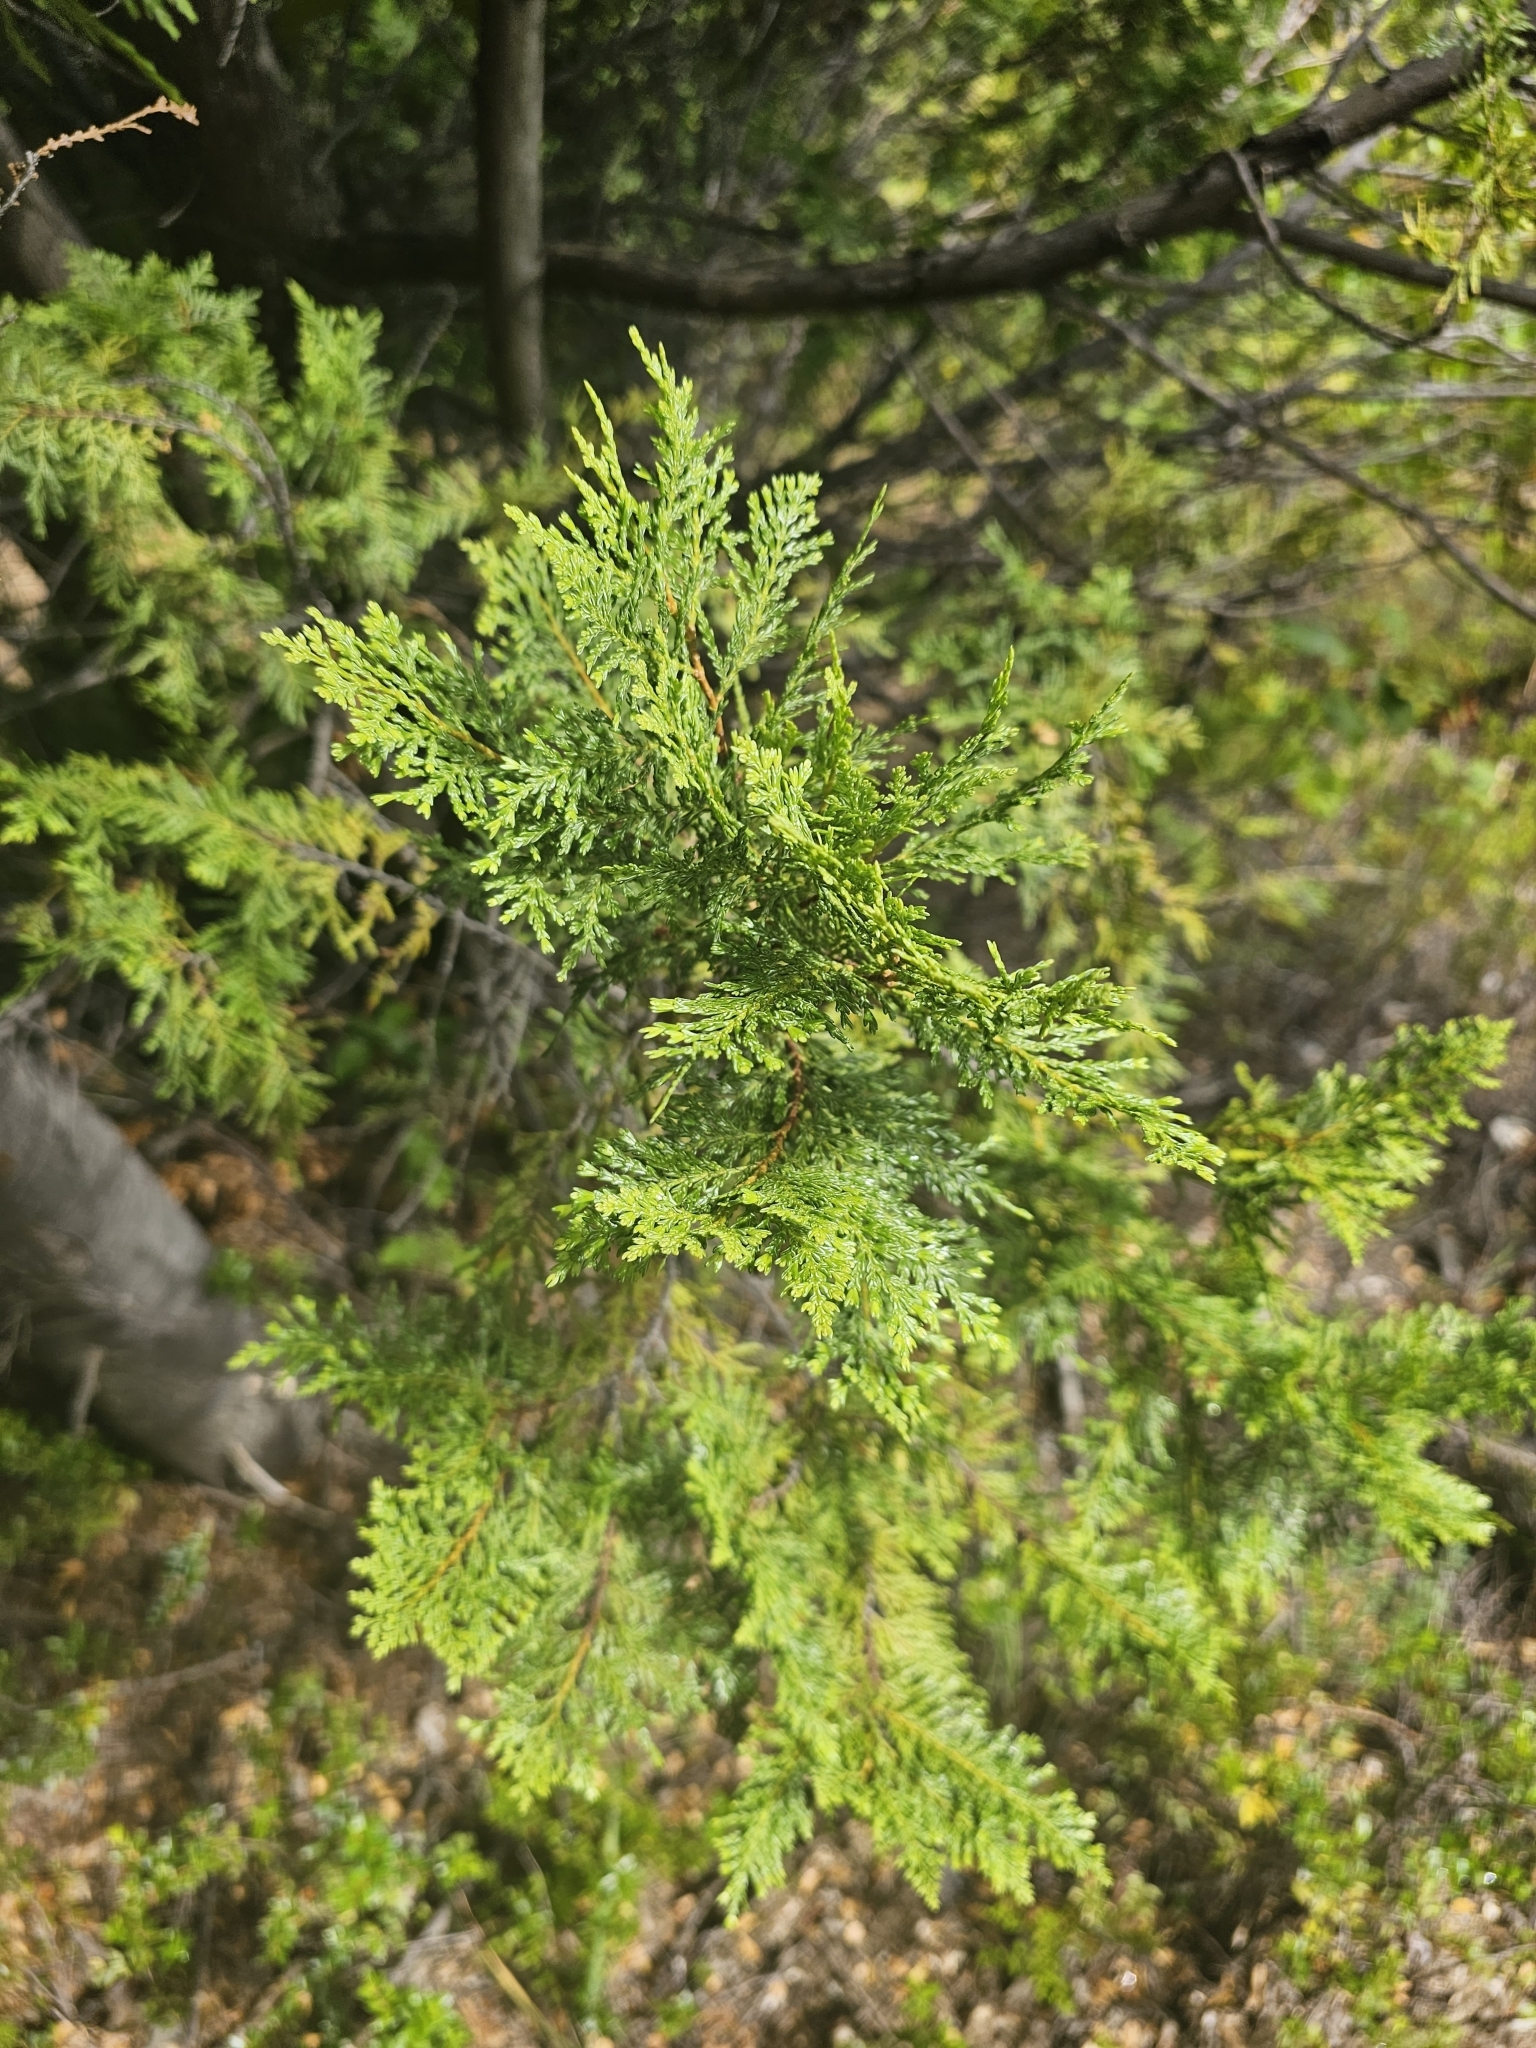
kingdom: Plantae
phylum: Tracheophyta
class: Pinopsida
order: Pinales
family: Cupressaceae
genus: Austrocedrus
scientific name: Austrocedrus chilensis
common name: Chilean incense-cedar
